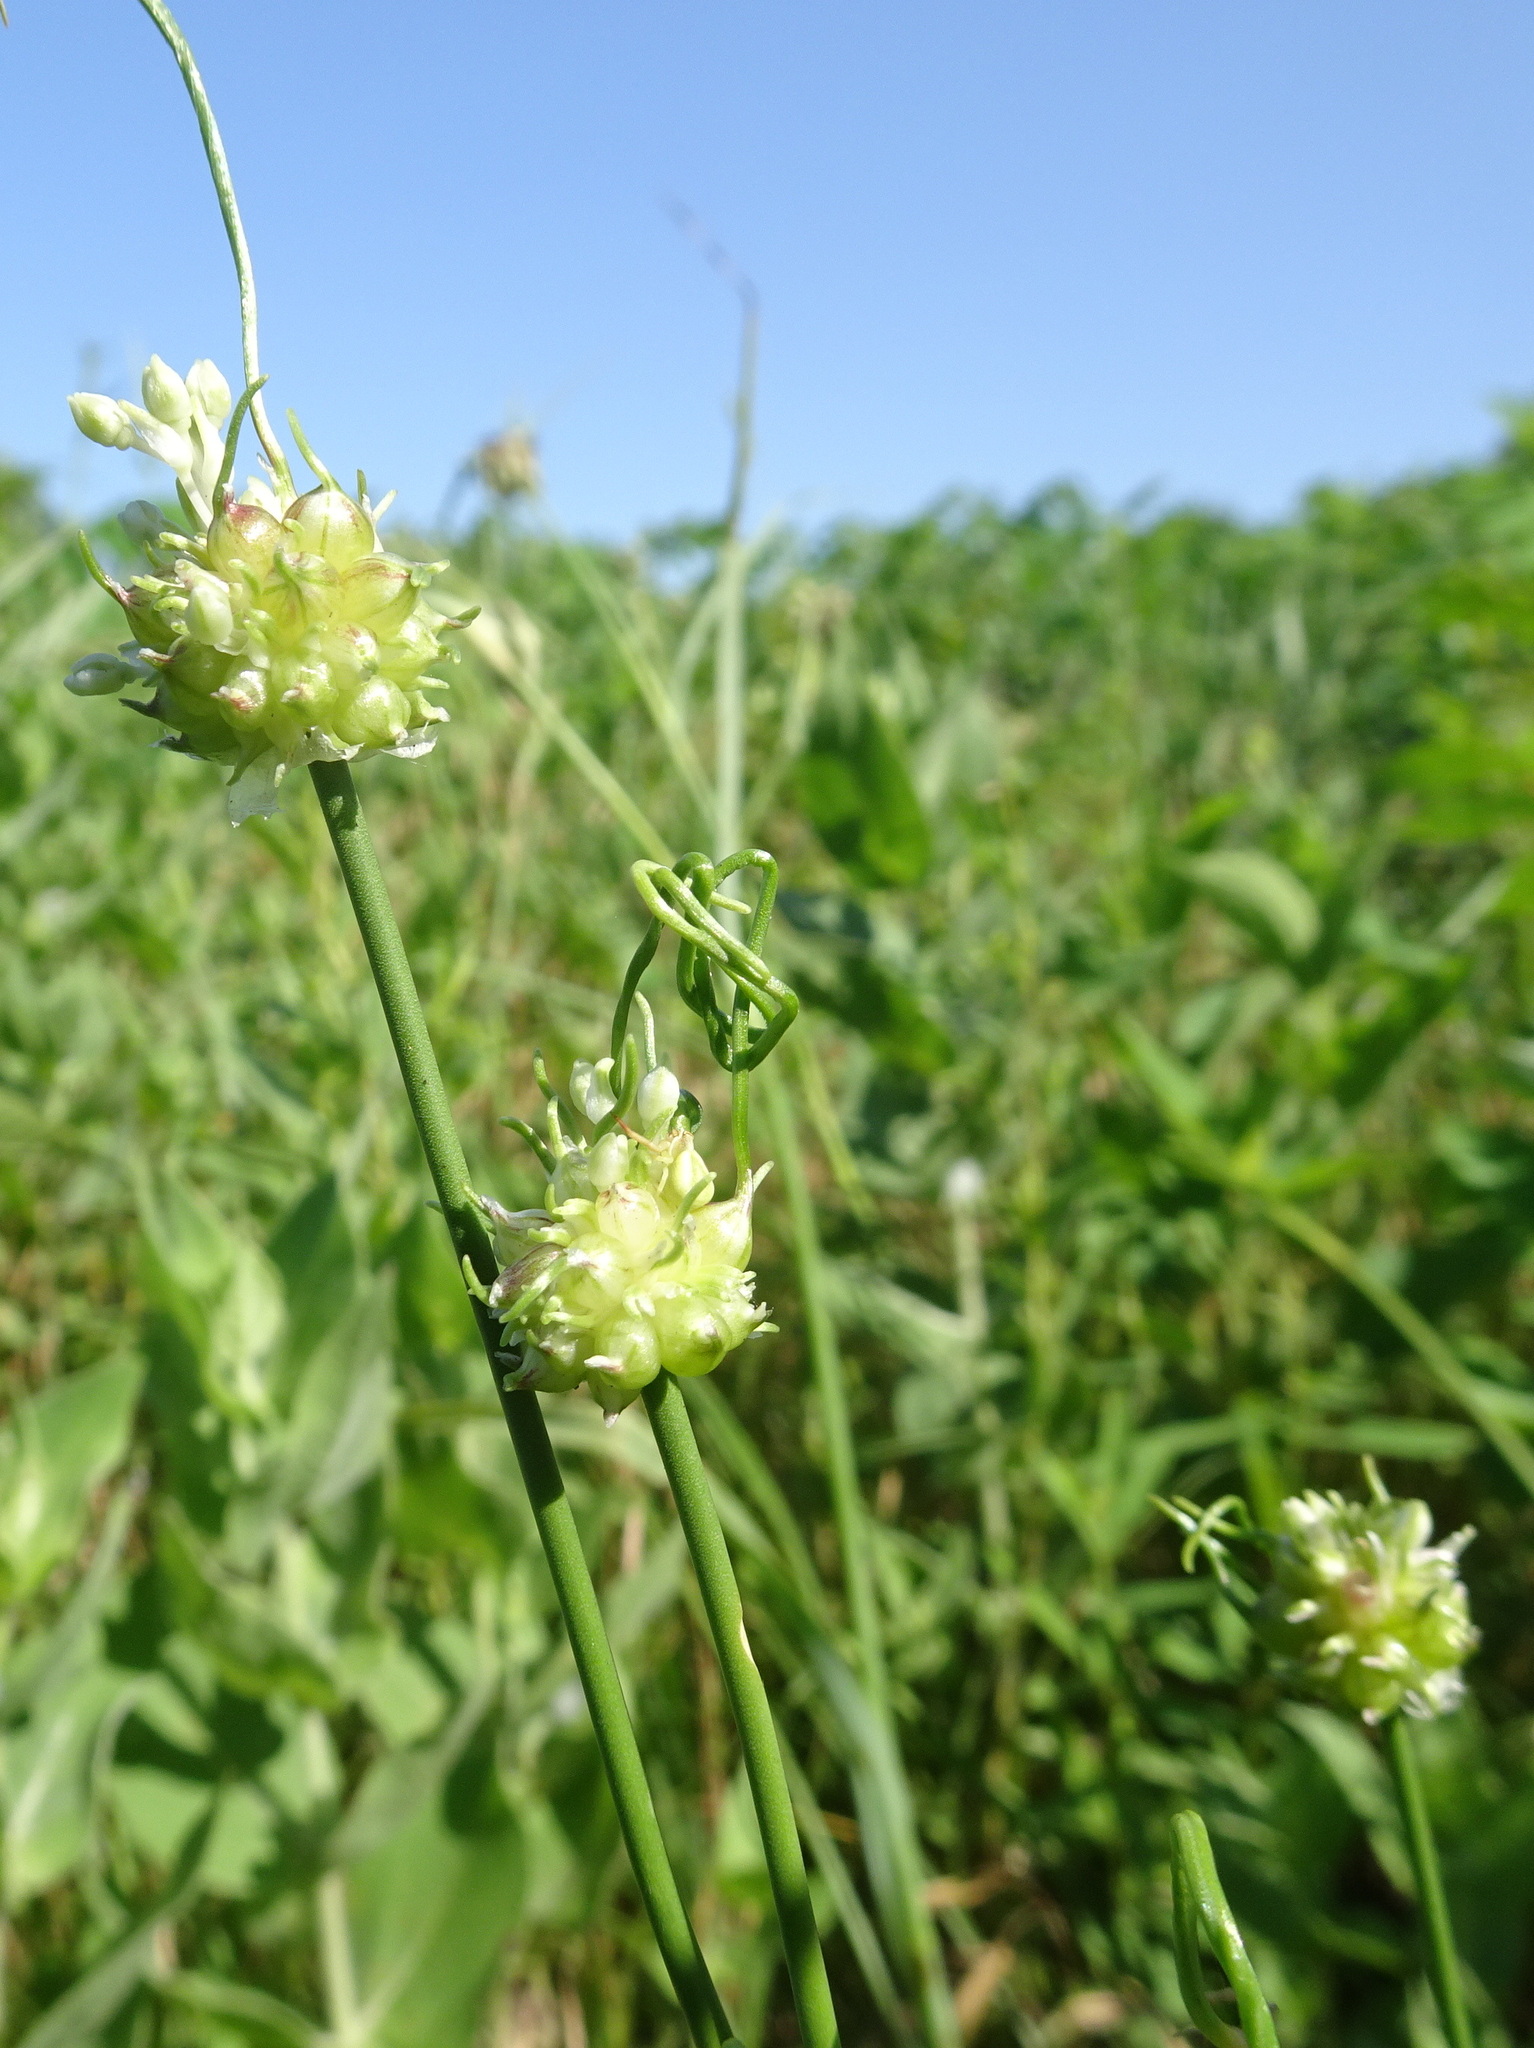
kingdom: Plantae
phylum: Tracheophyta
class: Liliopsida
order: Asparagales
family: Amaryllidaceae
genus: Allium
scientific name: Allium vineale
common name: Crow garlic
